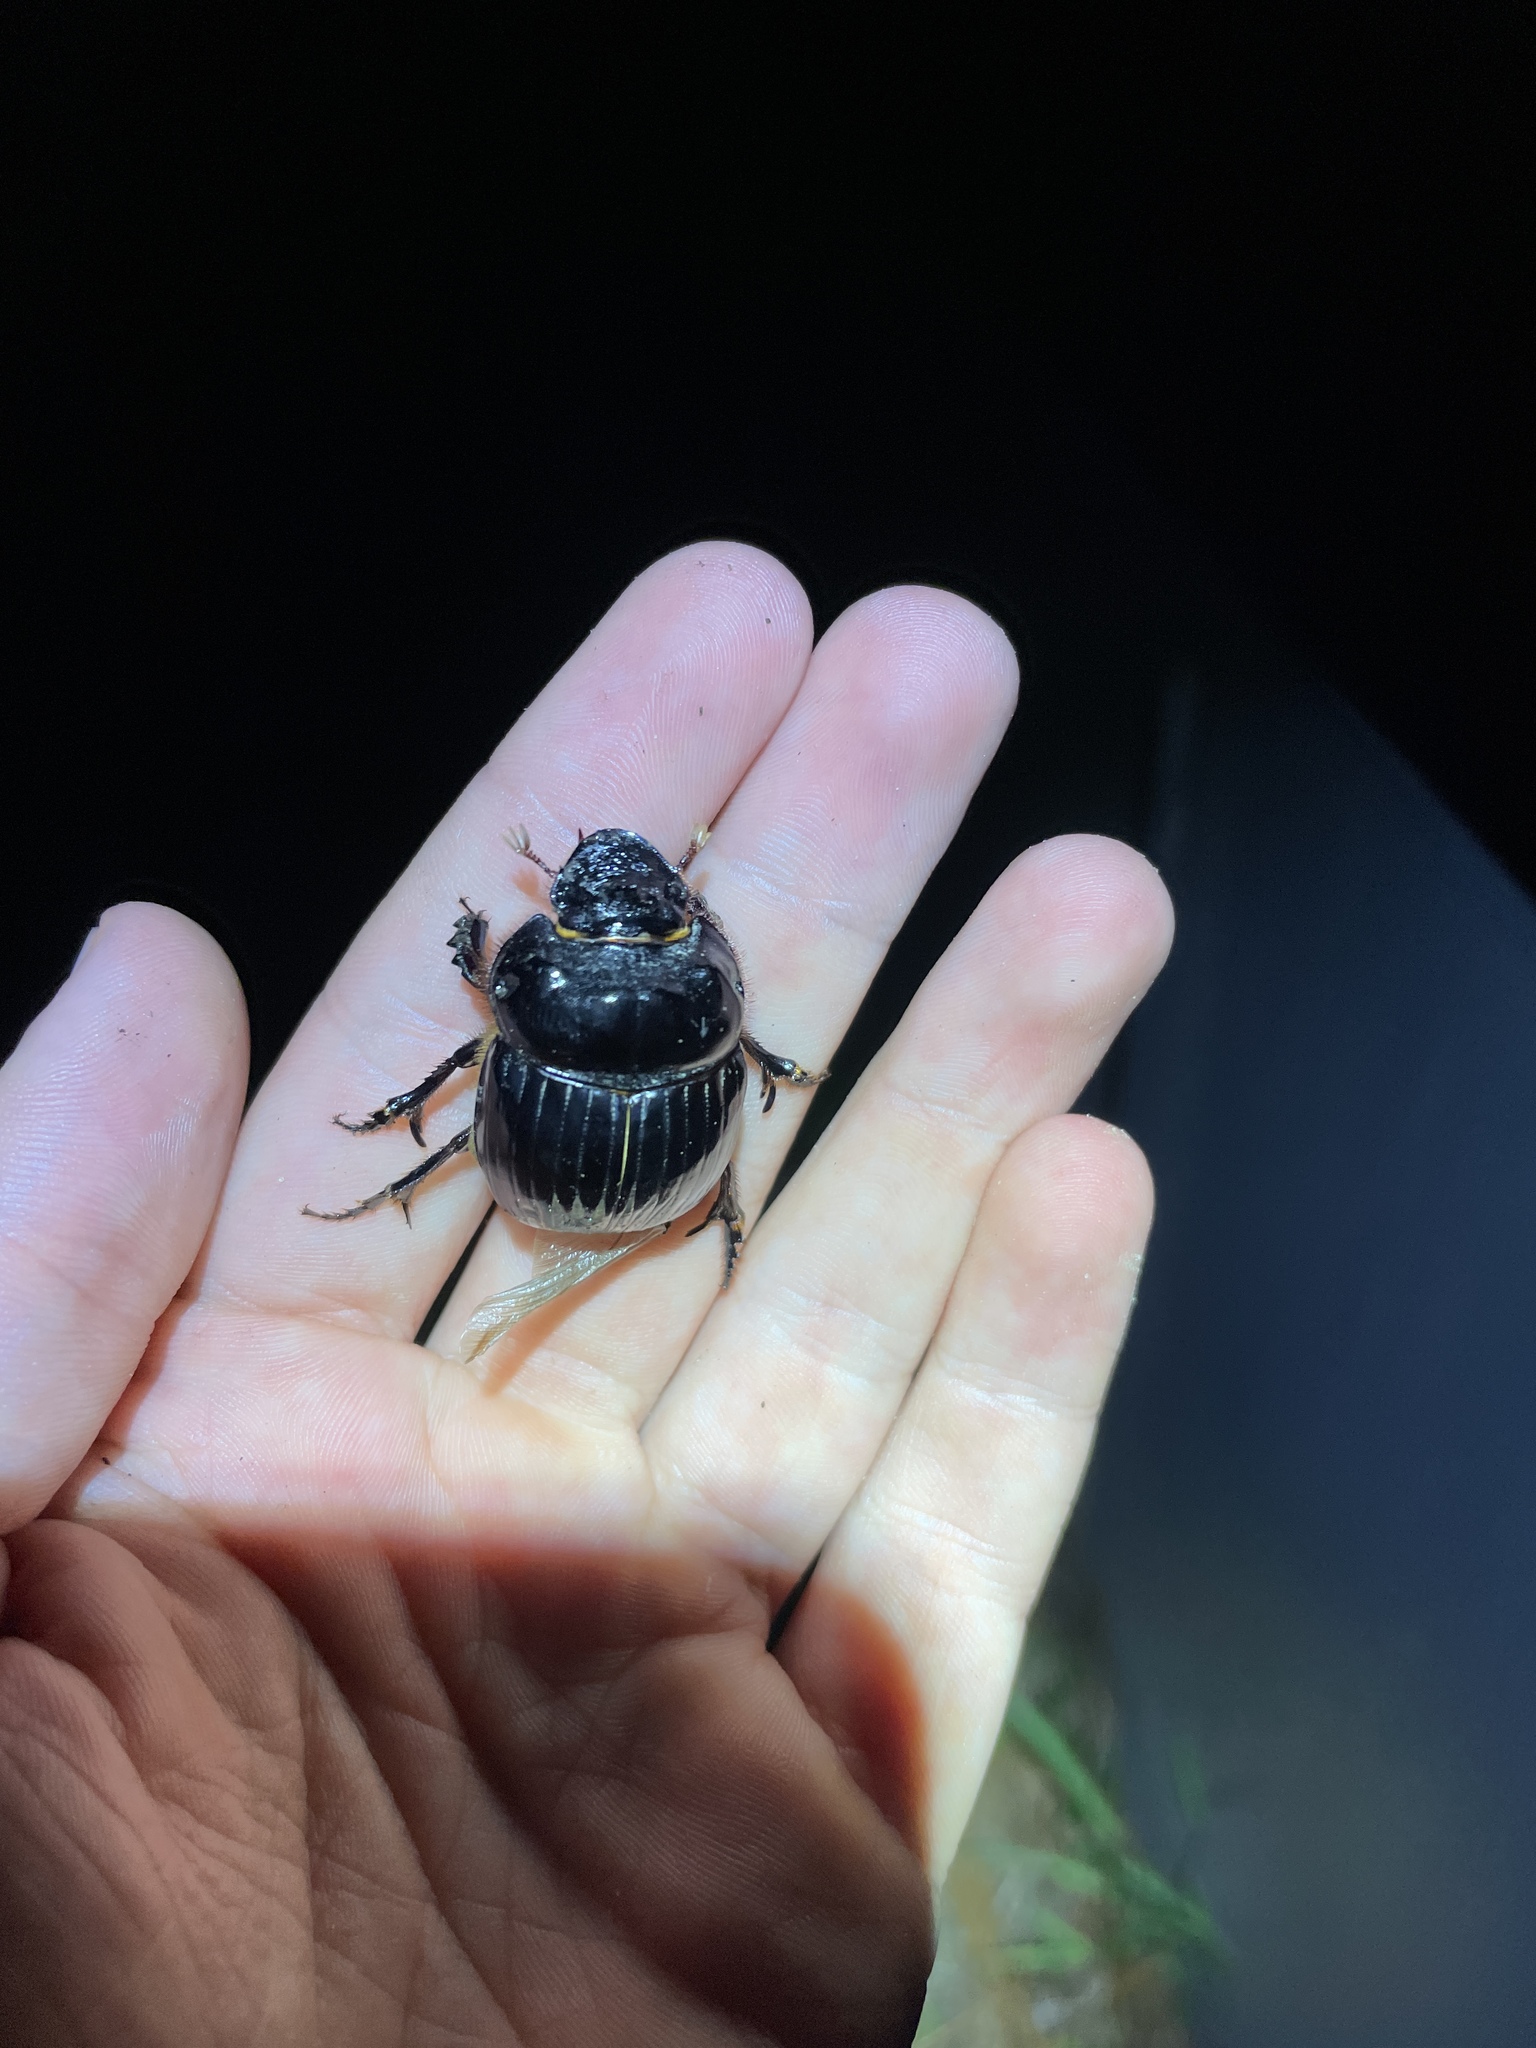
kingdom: Animalia
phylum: Arthropoda
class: Insecta
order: Coleoptera
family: Scarabaeidae
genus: Dichotomius
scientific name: Dichotomius carolinus
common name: Carolina copris
